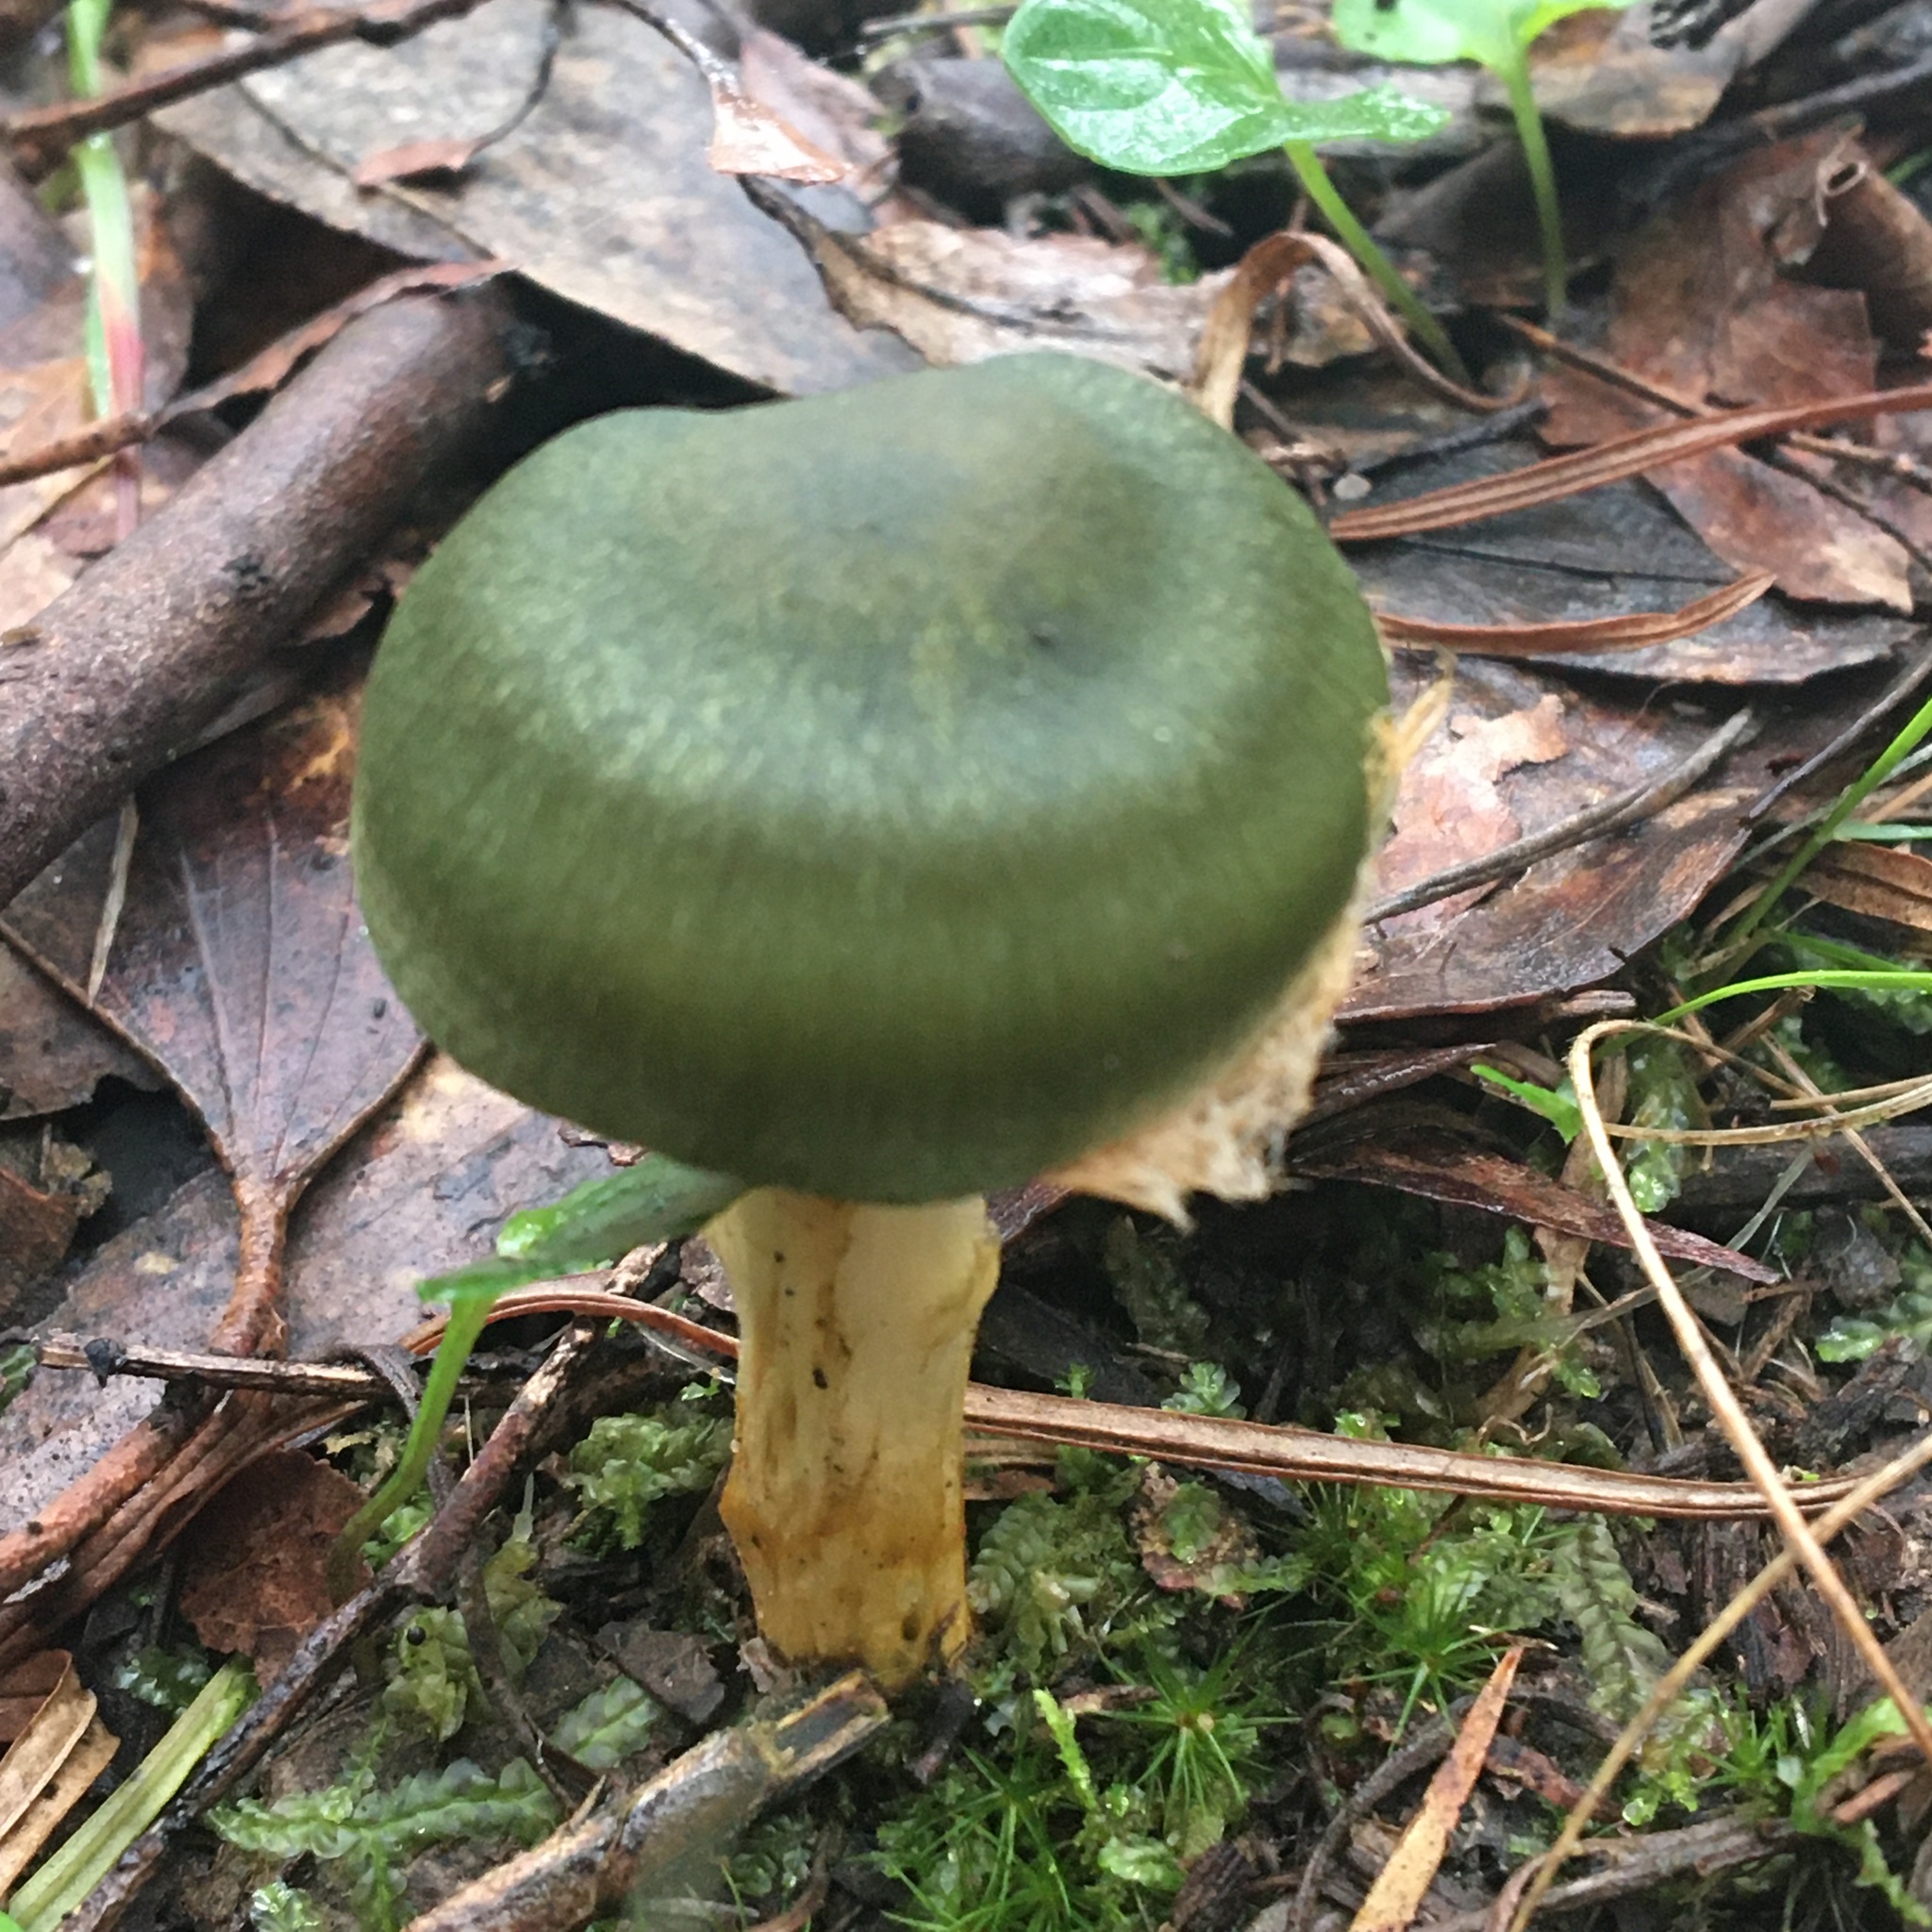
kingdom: Fungi
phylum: Basidiomycota
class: Agaricomycetes
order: Agaricales
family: Cortinariaceae
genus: Cortinarius
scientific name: Cortinarius austrovenetus
